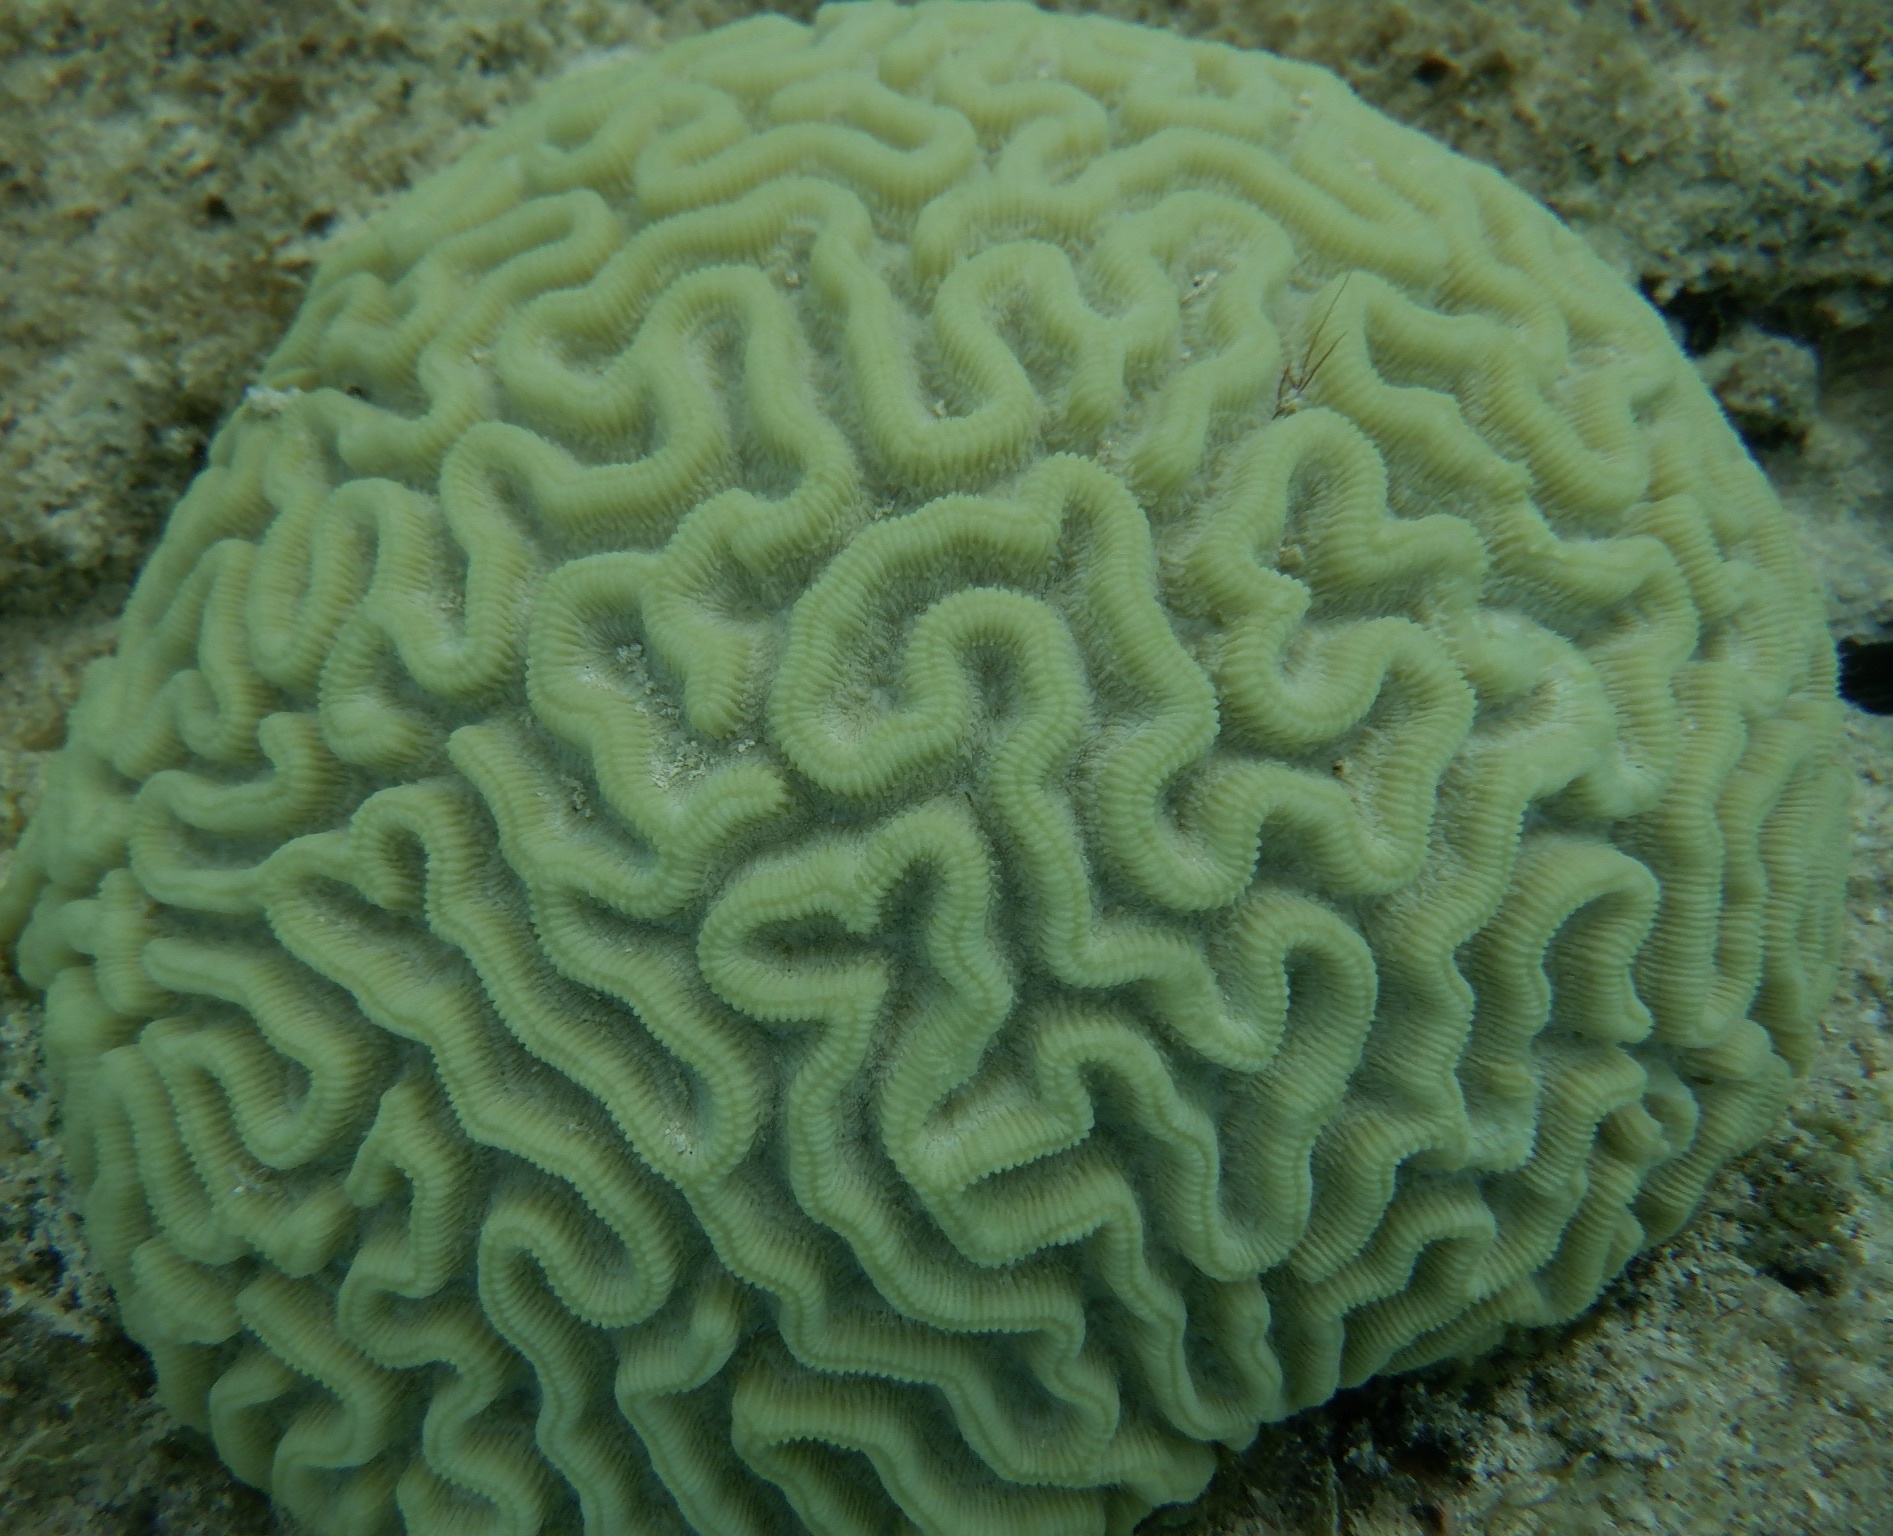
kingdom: Animalia
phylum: Cnidaria
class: Anthozoa
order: Scleractinia
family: Faviidae
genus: Pseudodiploria
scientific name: Pseudodiploria strigosa
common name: Symmetrical brain coral
